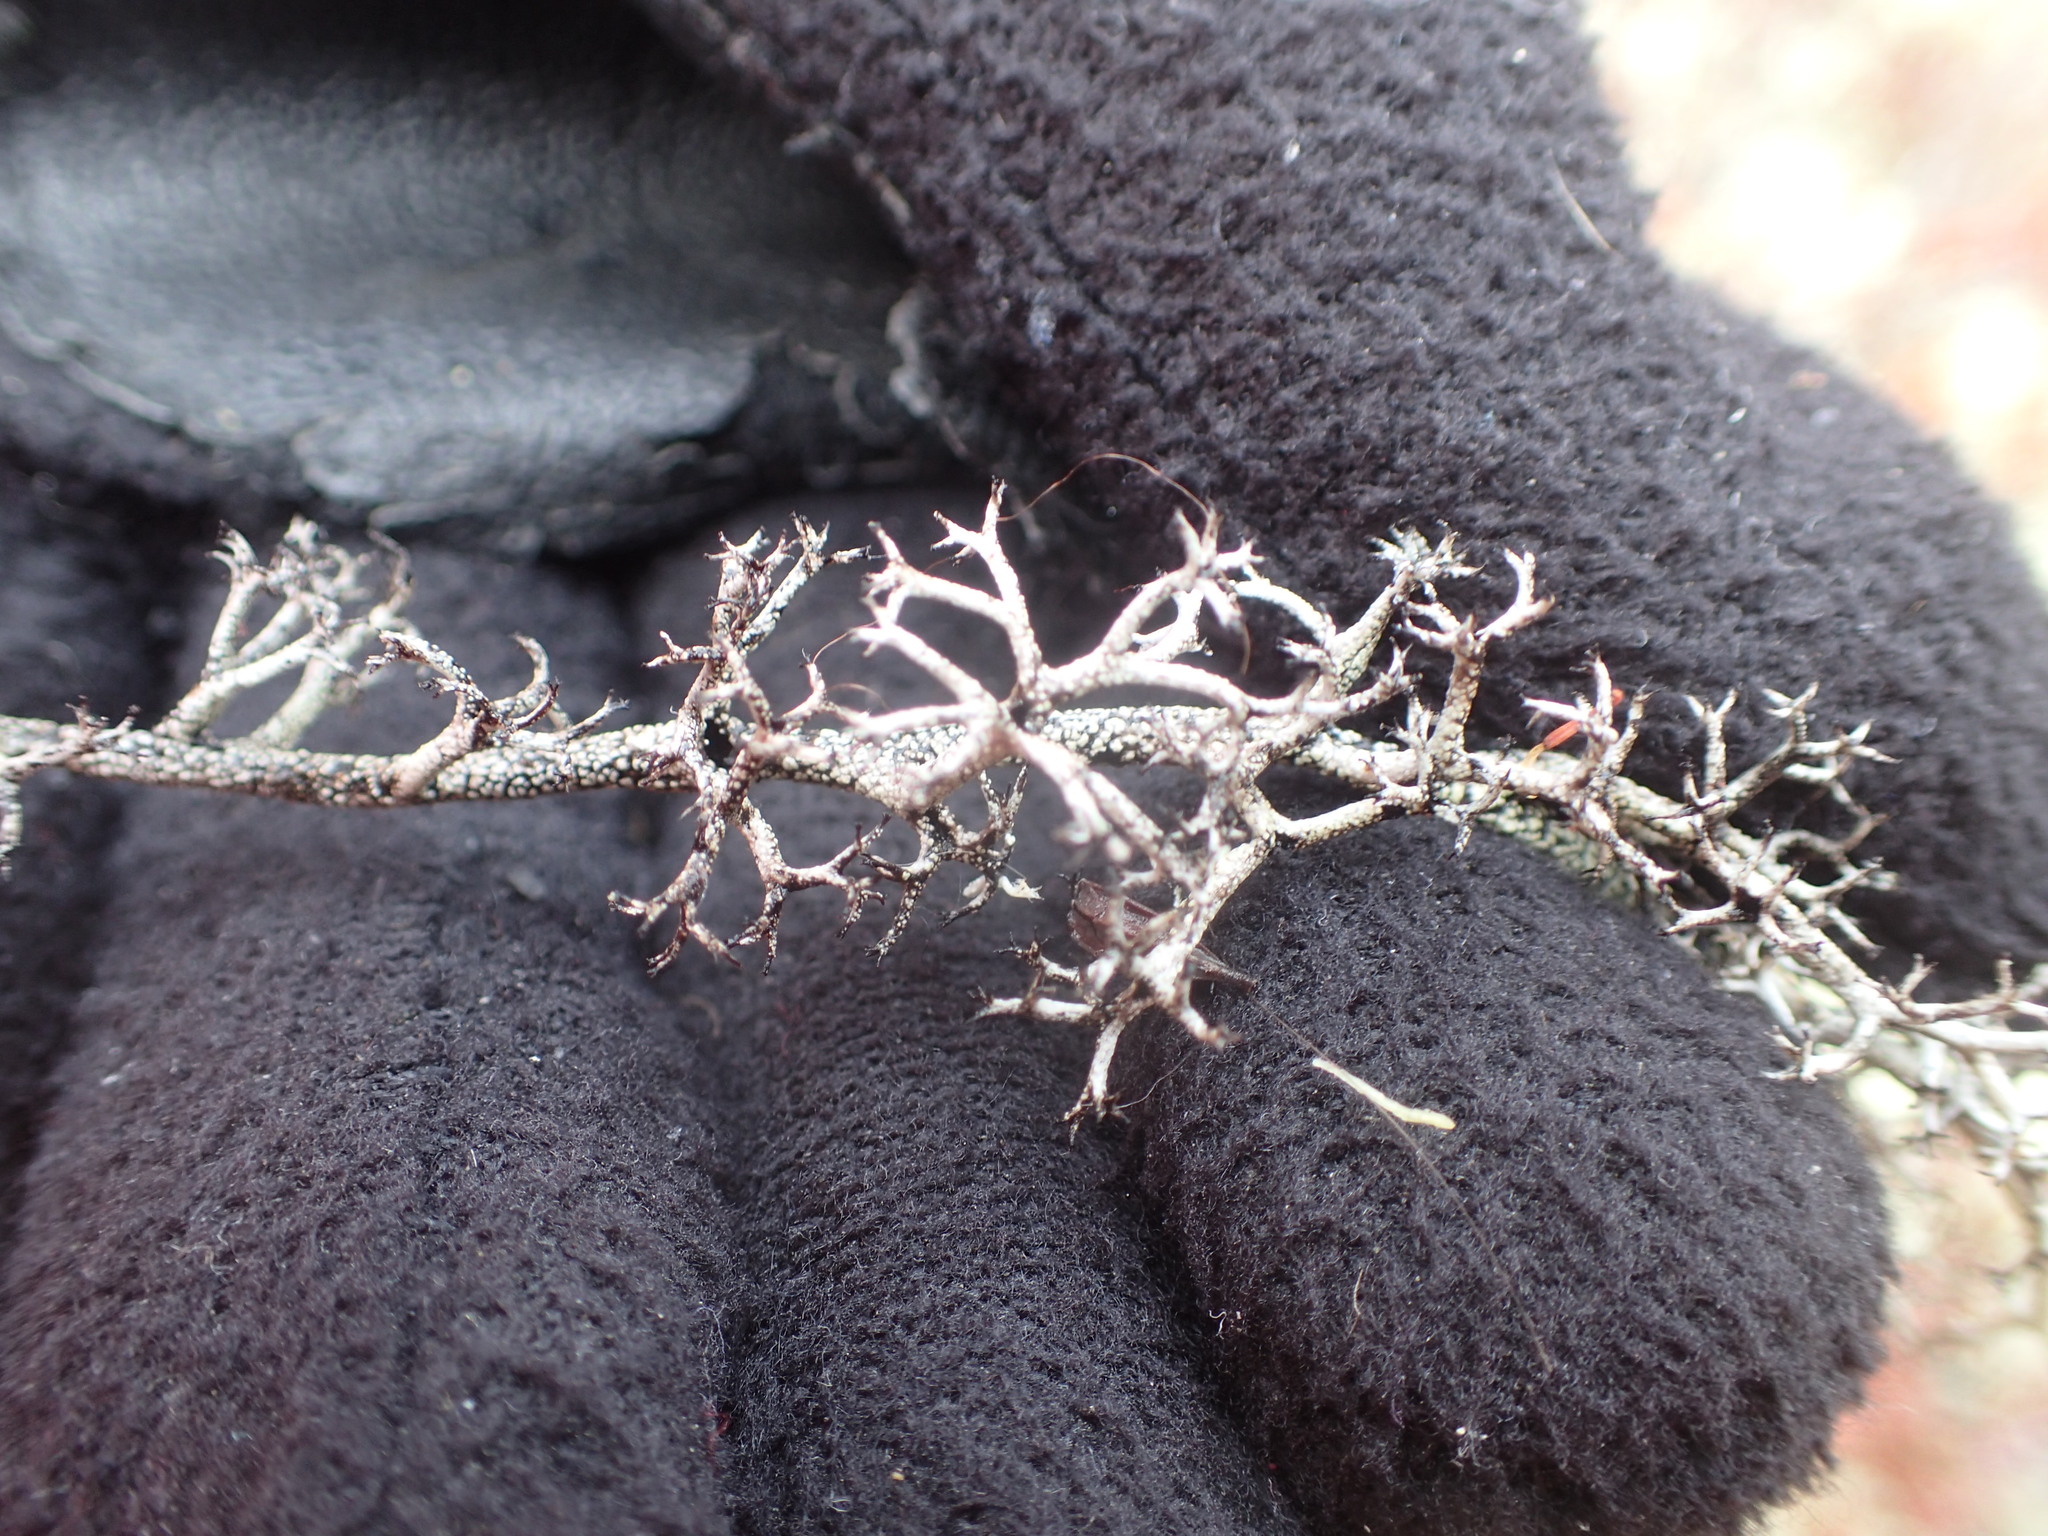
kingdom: Fungi
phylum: Ascomycota
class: Lecanoromycetes
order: Lecanorales
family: Cladoniaceae
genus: Cladonia
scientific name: Cladonia stygia
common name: Black-footed reindeer lichen
